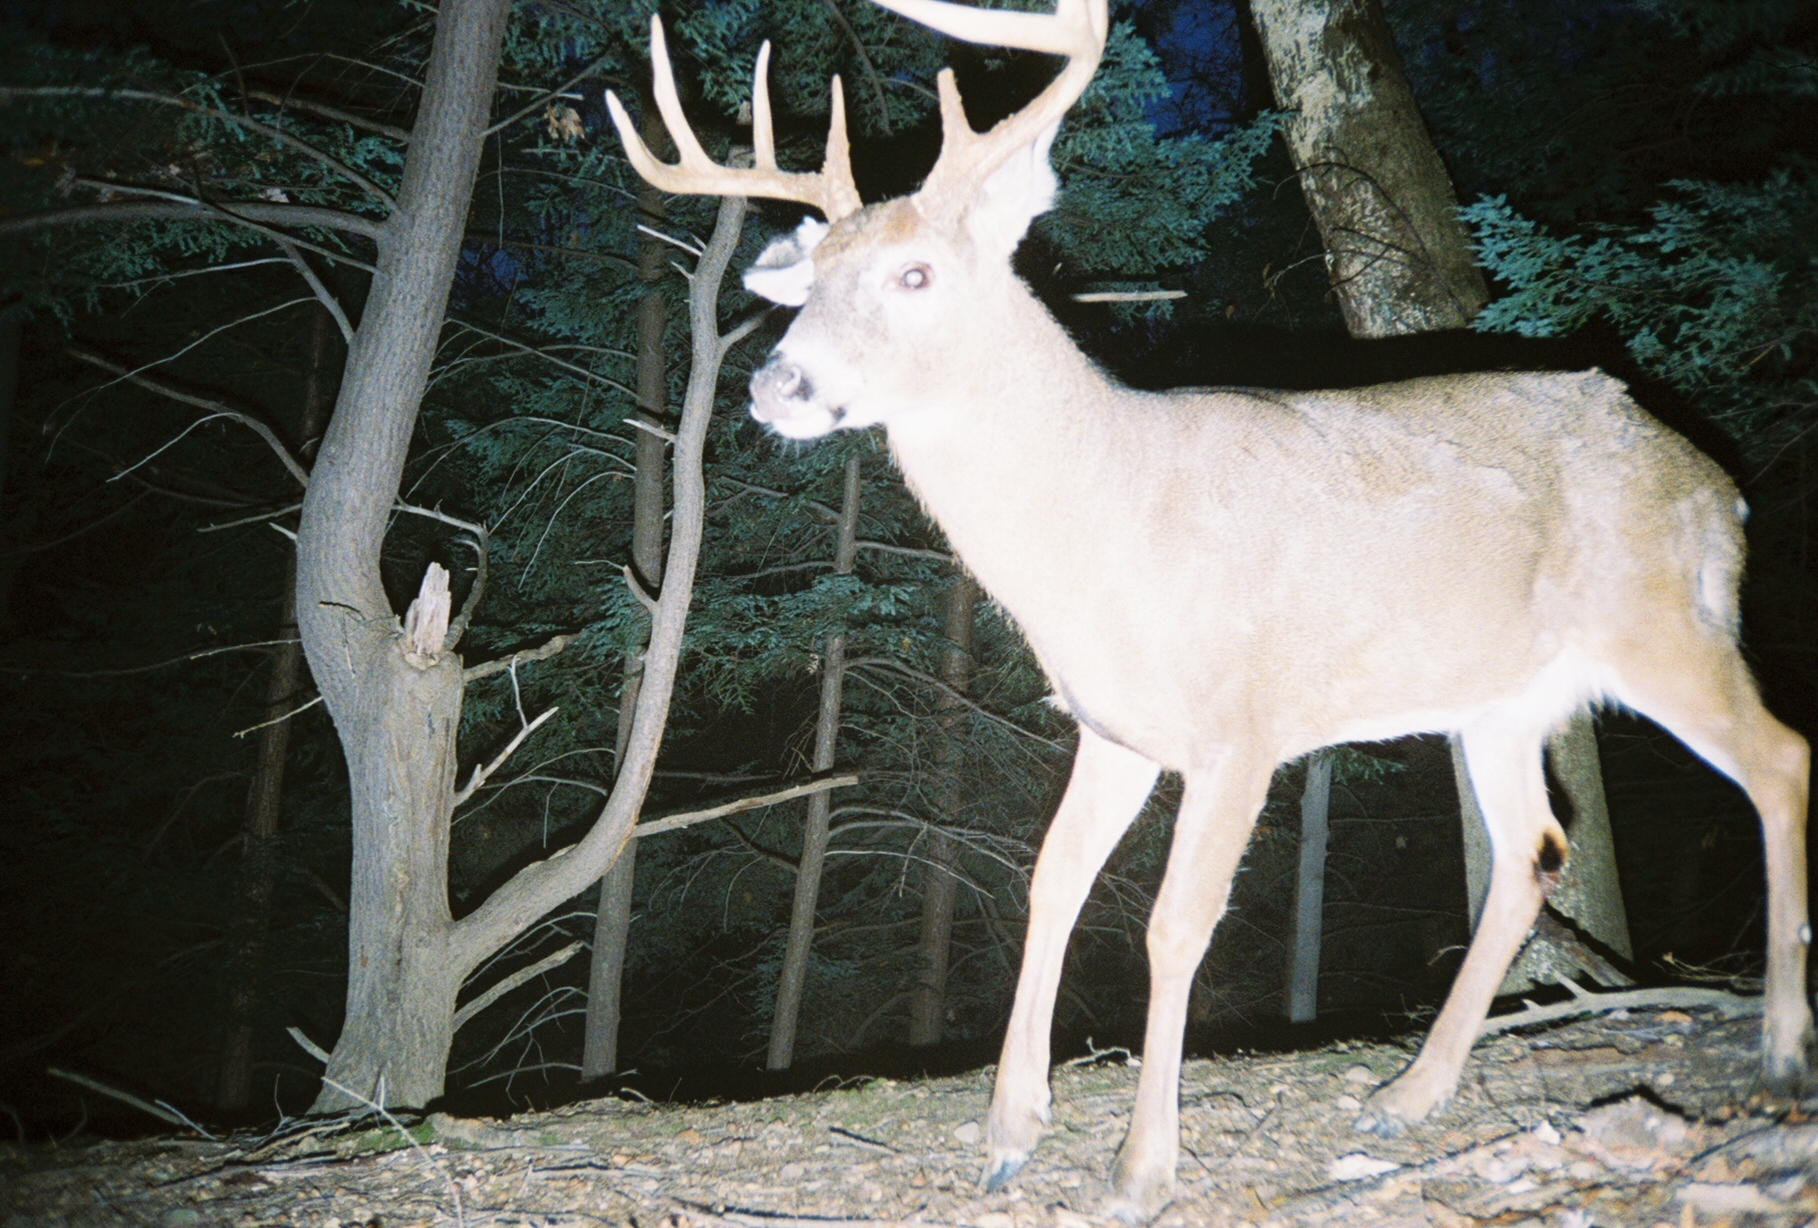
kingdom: Animalia
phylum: Chordata
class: Mammalia
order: Artiodactyla
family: Cervidae
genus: Odocoileus
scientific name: Odocoileus virginianus
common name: White-tailed deer
